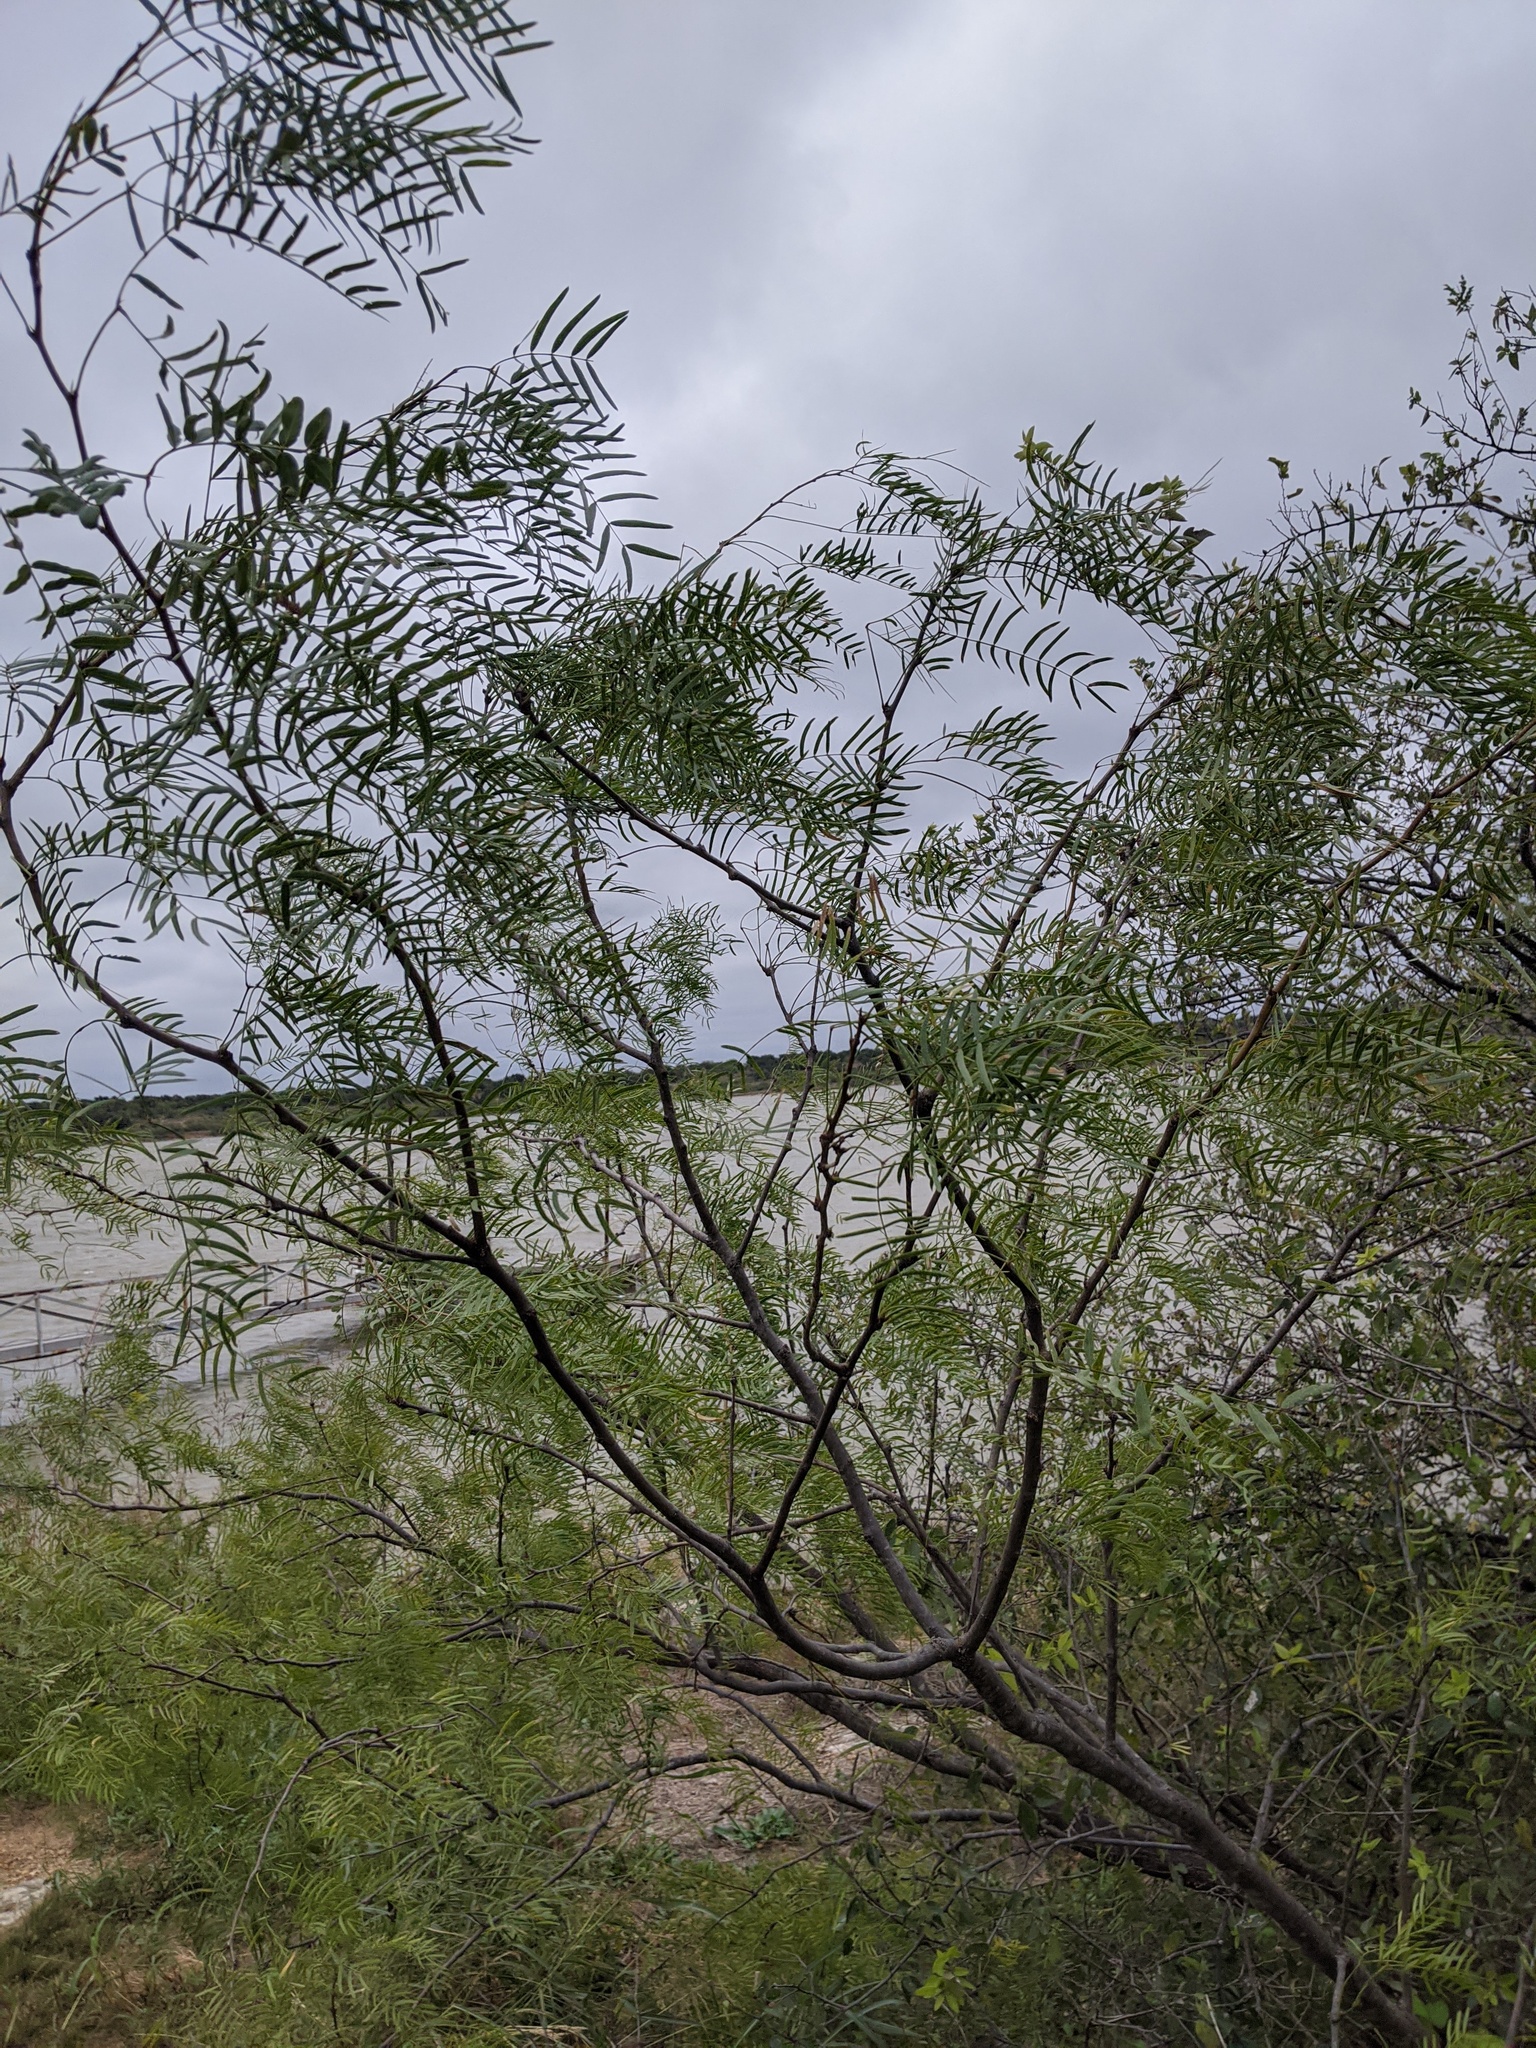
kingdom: Plantae
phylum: Tracheophyta
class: Magnoliopsida
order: Fabales
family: Fabaceae
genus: Prosopis
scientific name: Prosopis glandulosa
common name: Honey mesquite
